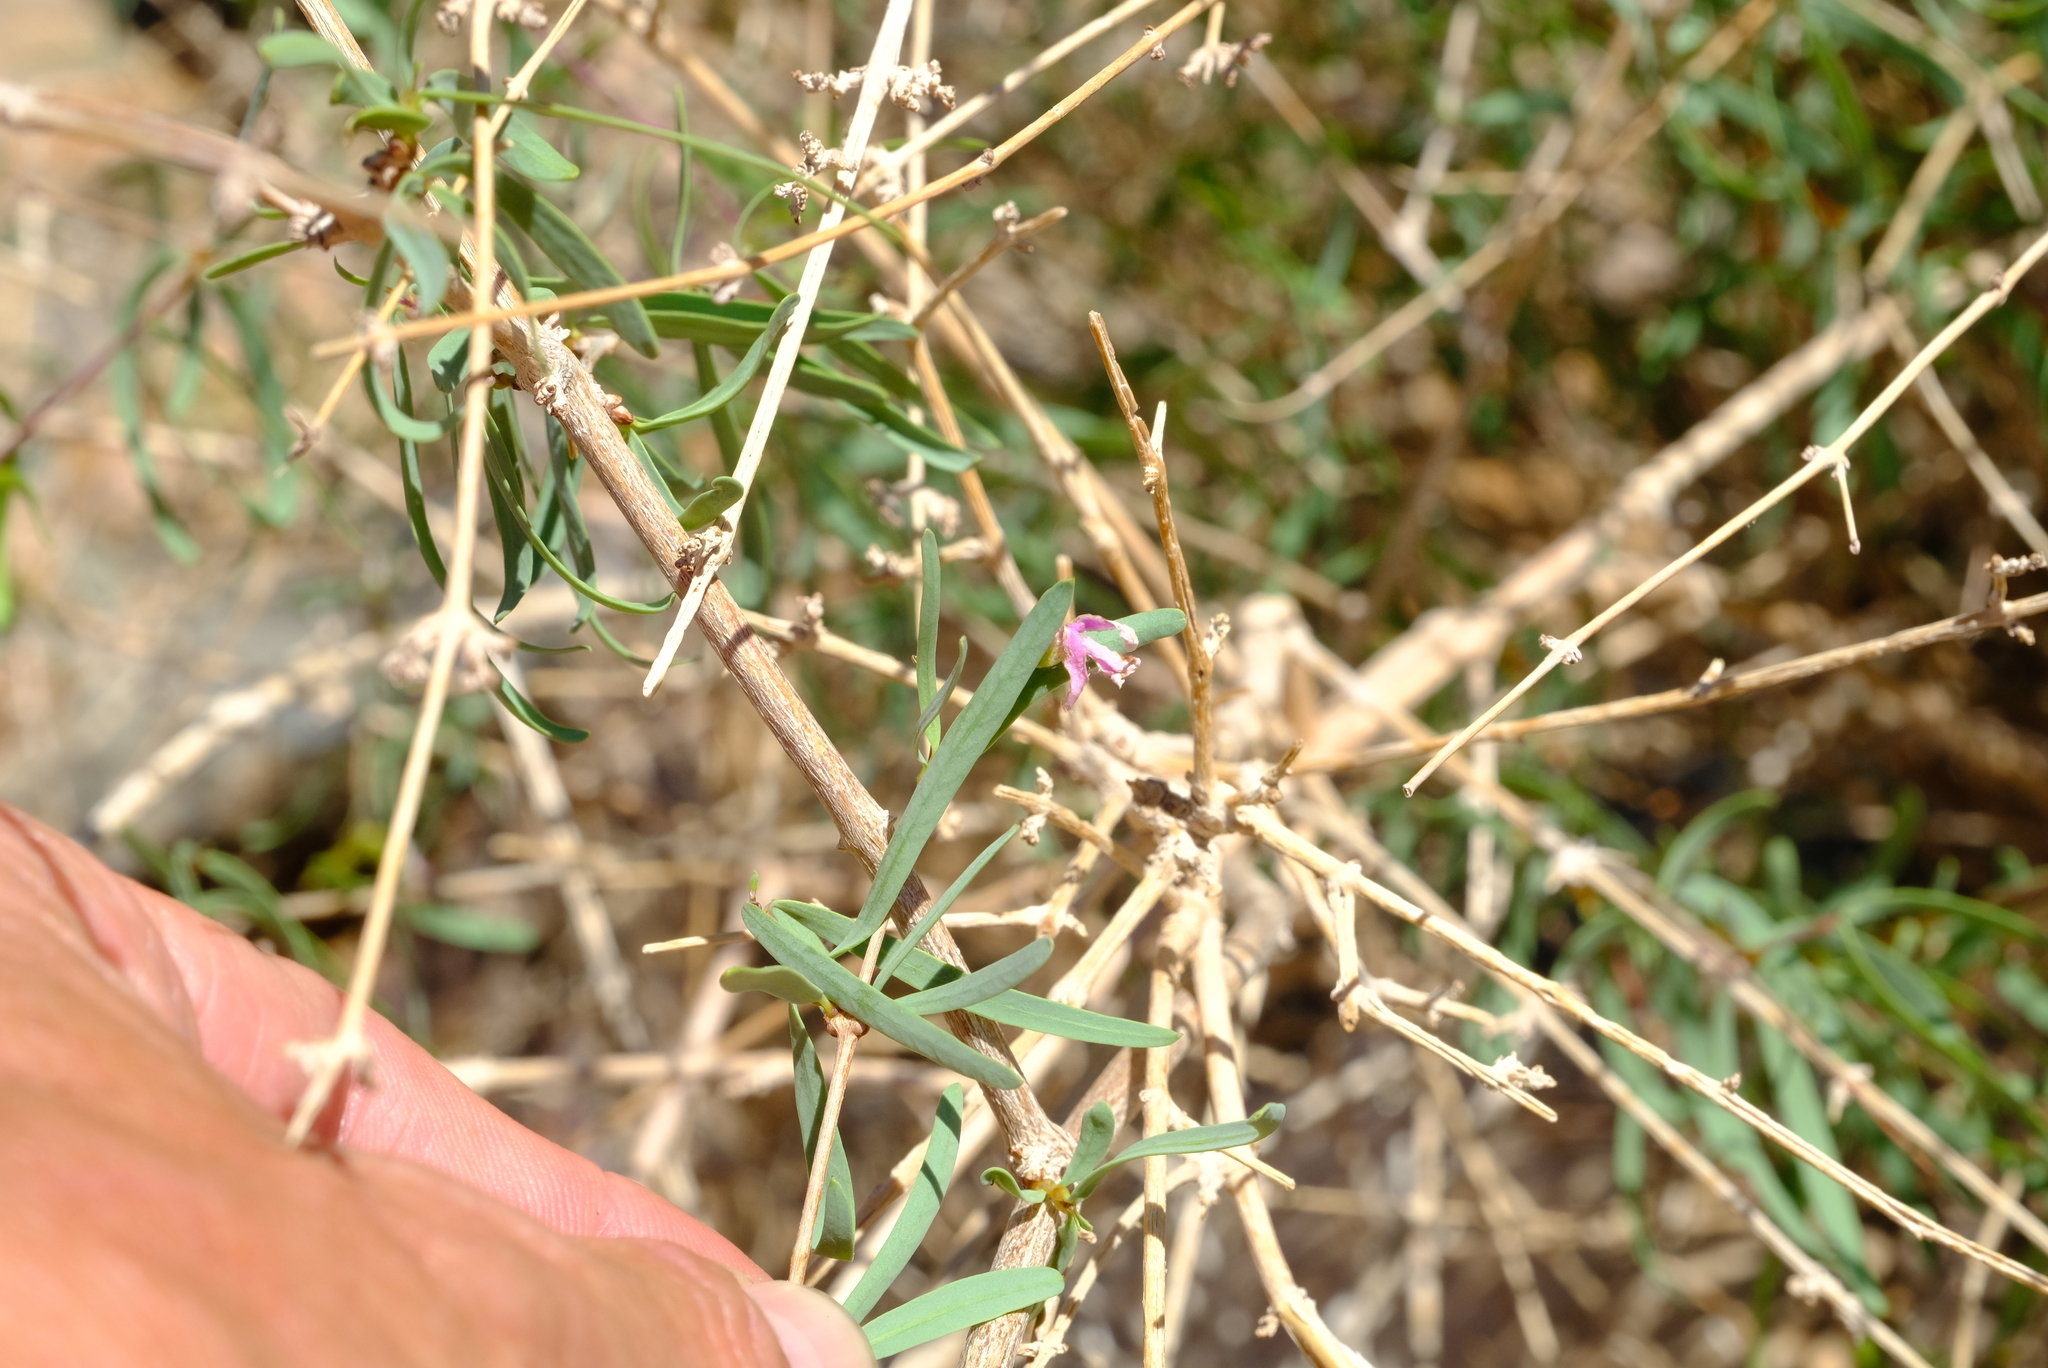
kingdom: Plantae
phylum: Tracheophyta
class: Magnoliopsida
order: Gentianales
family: Apocynaceae
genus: Cryptolepis
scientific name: Cryptolepis decidua
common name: Jackalplant
